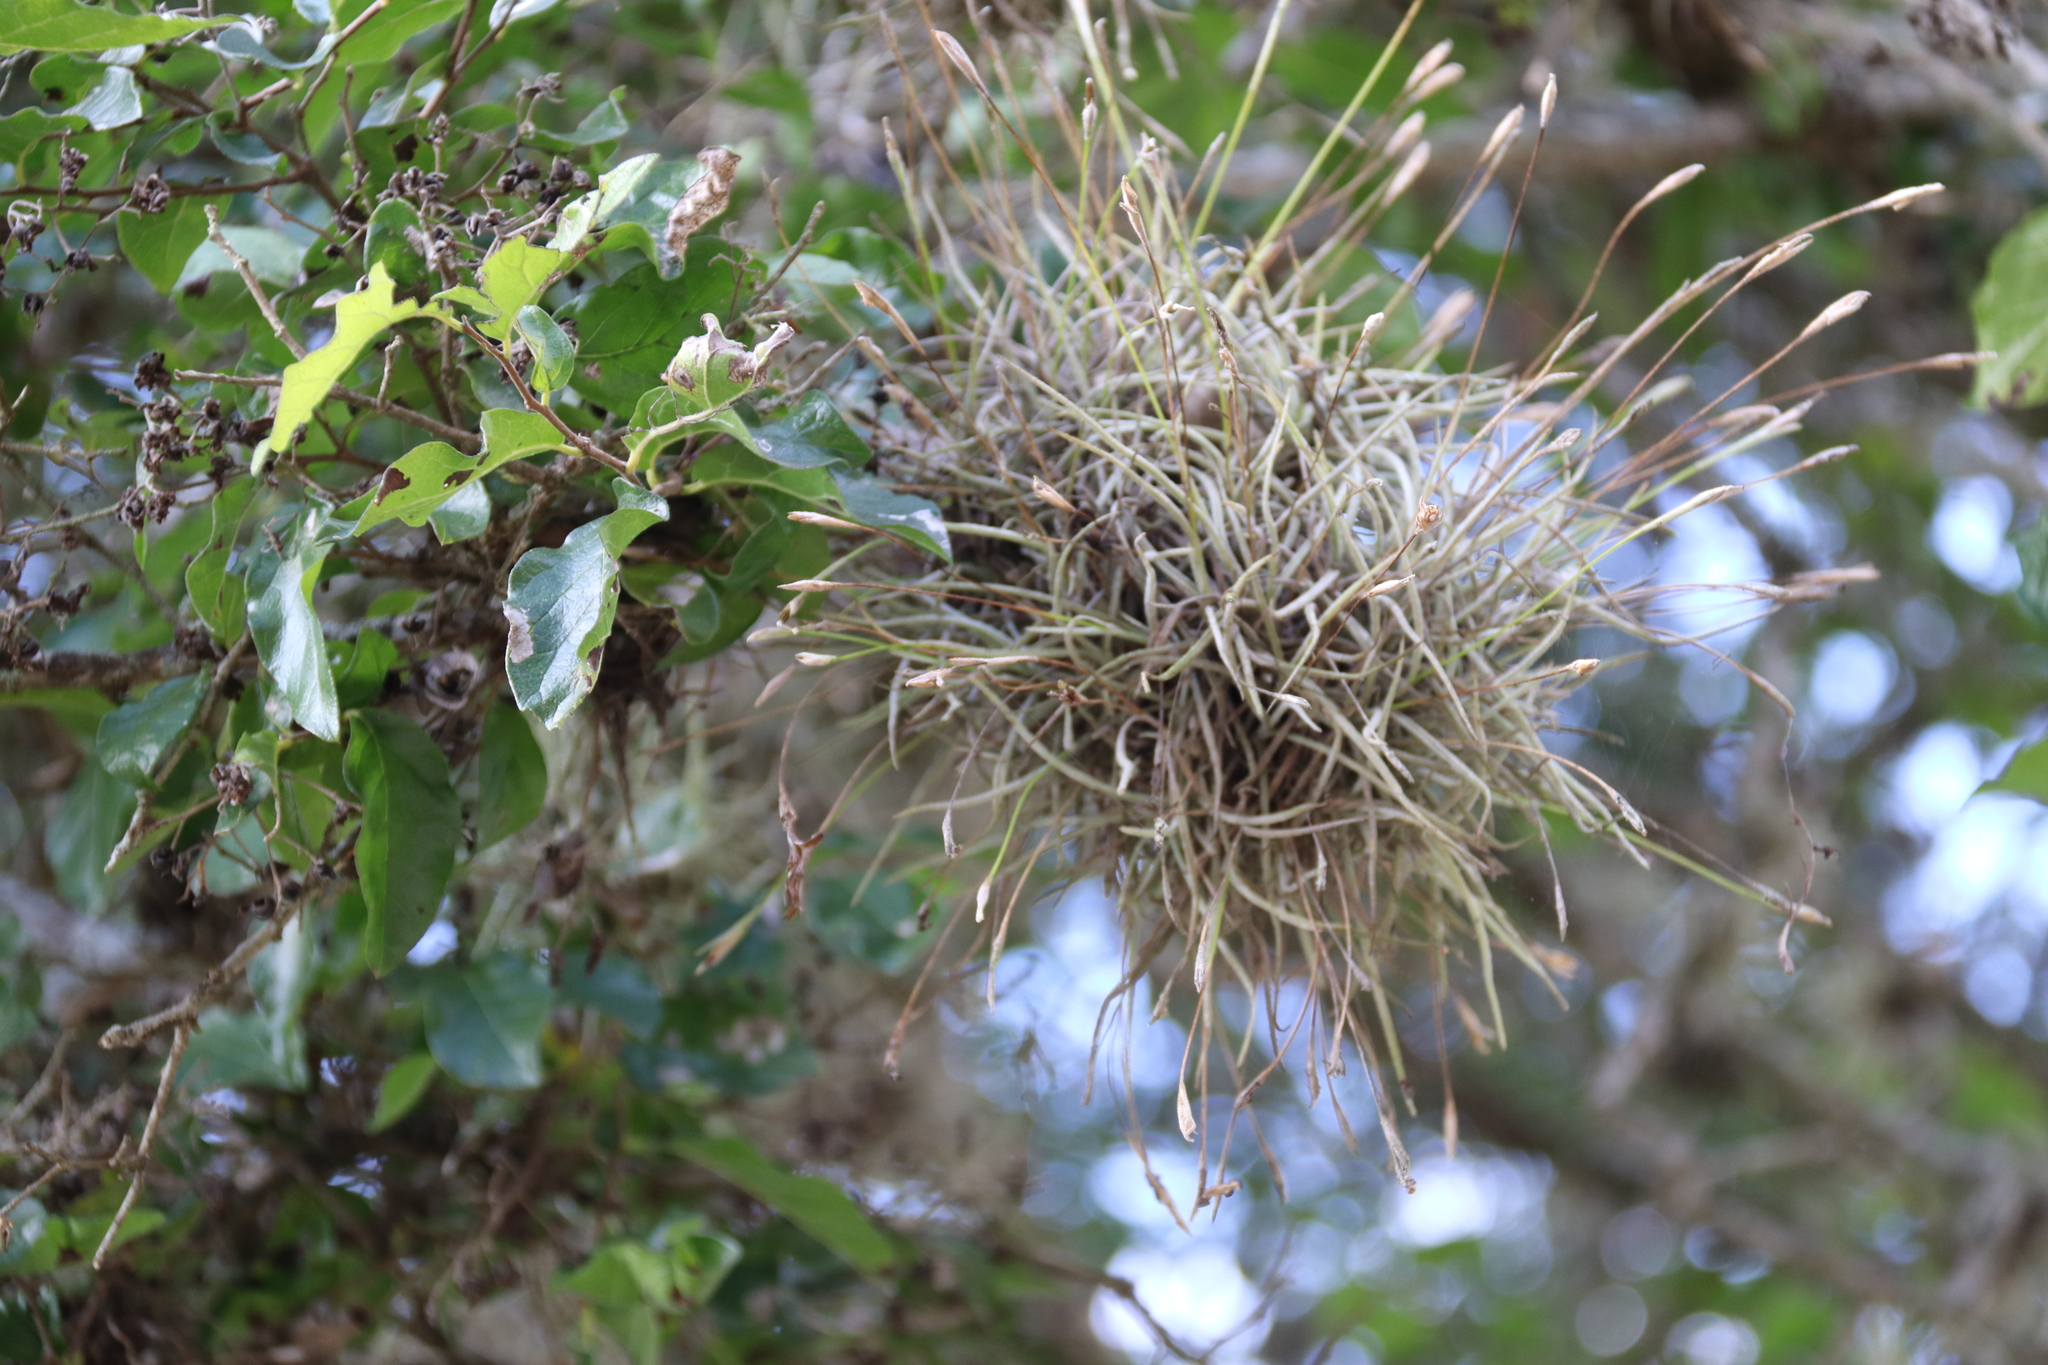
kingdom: Plantae
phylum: Tracheophyta
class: Liliopsida
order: Poales
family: Bromeliaceae
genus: Tillandsia
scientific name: Tillandsia recurvata
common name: Small ballmoss
